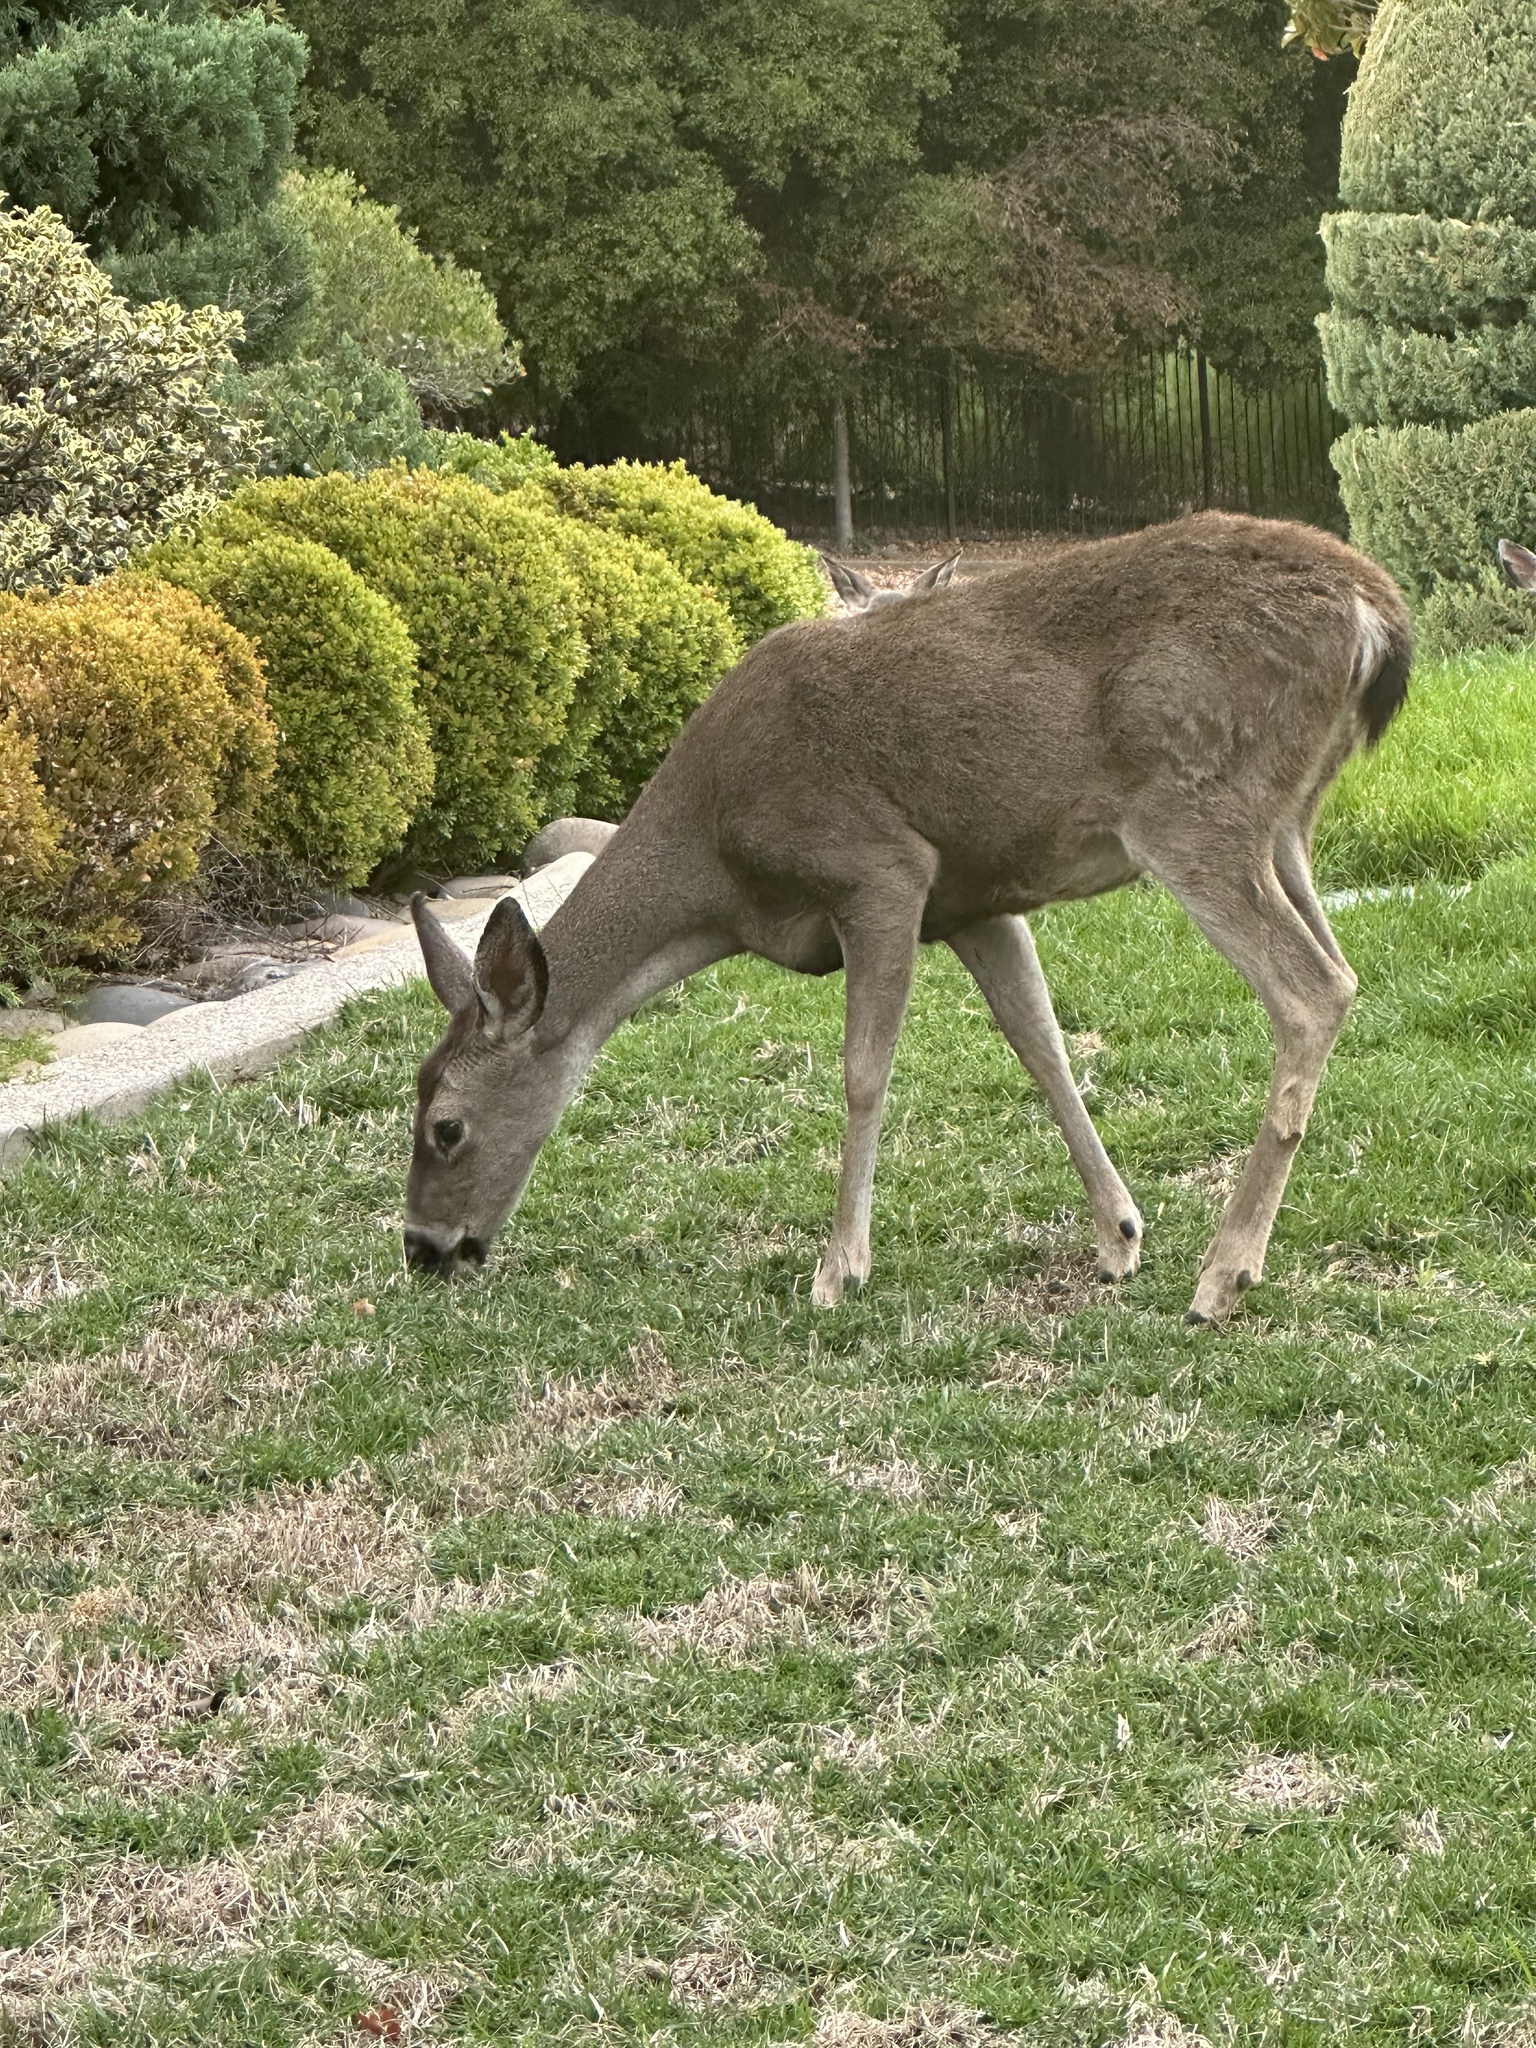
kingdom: Animalia
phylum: Chordata
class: Mammalia
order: Artiodactyla
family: Cervidae
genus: Odocoileus
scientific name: Odocoileus hemionus
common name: Mule deer
